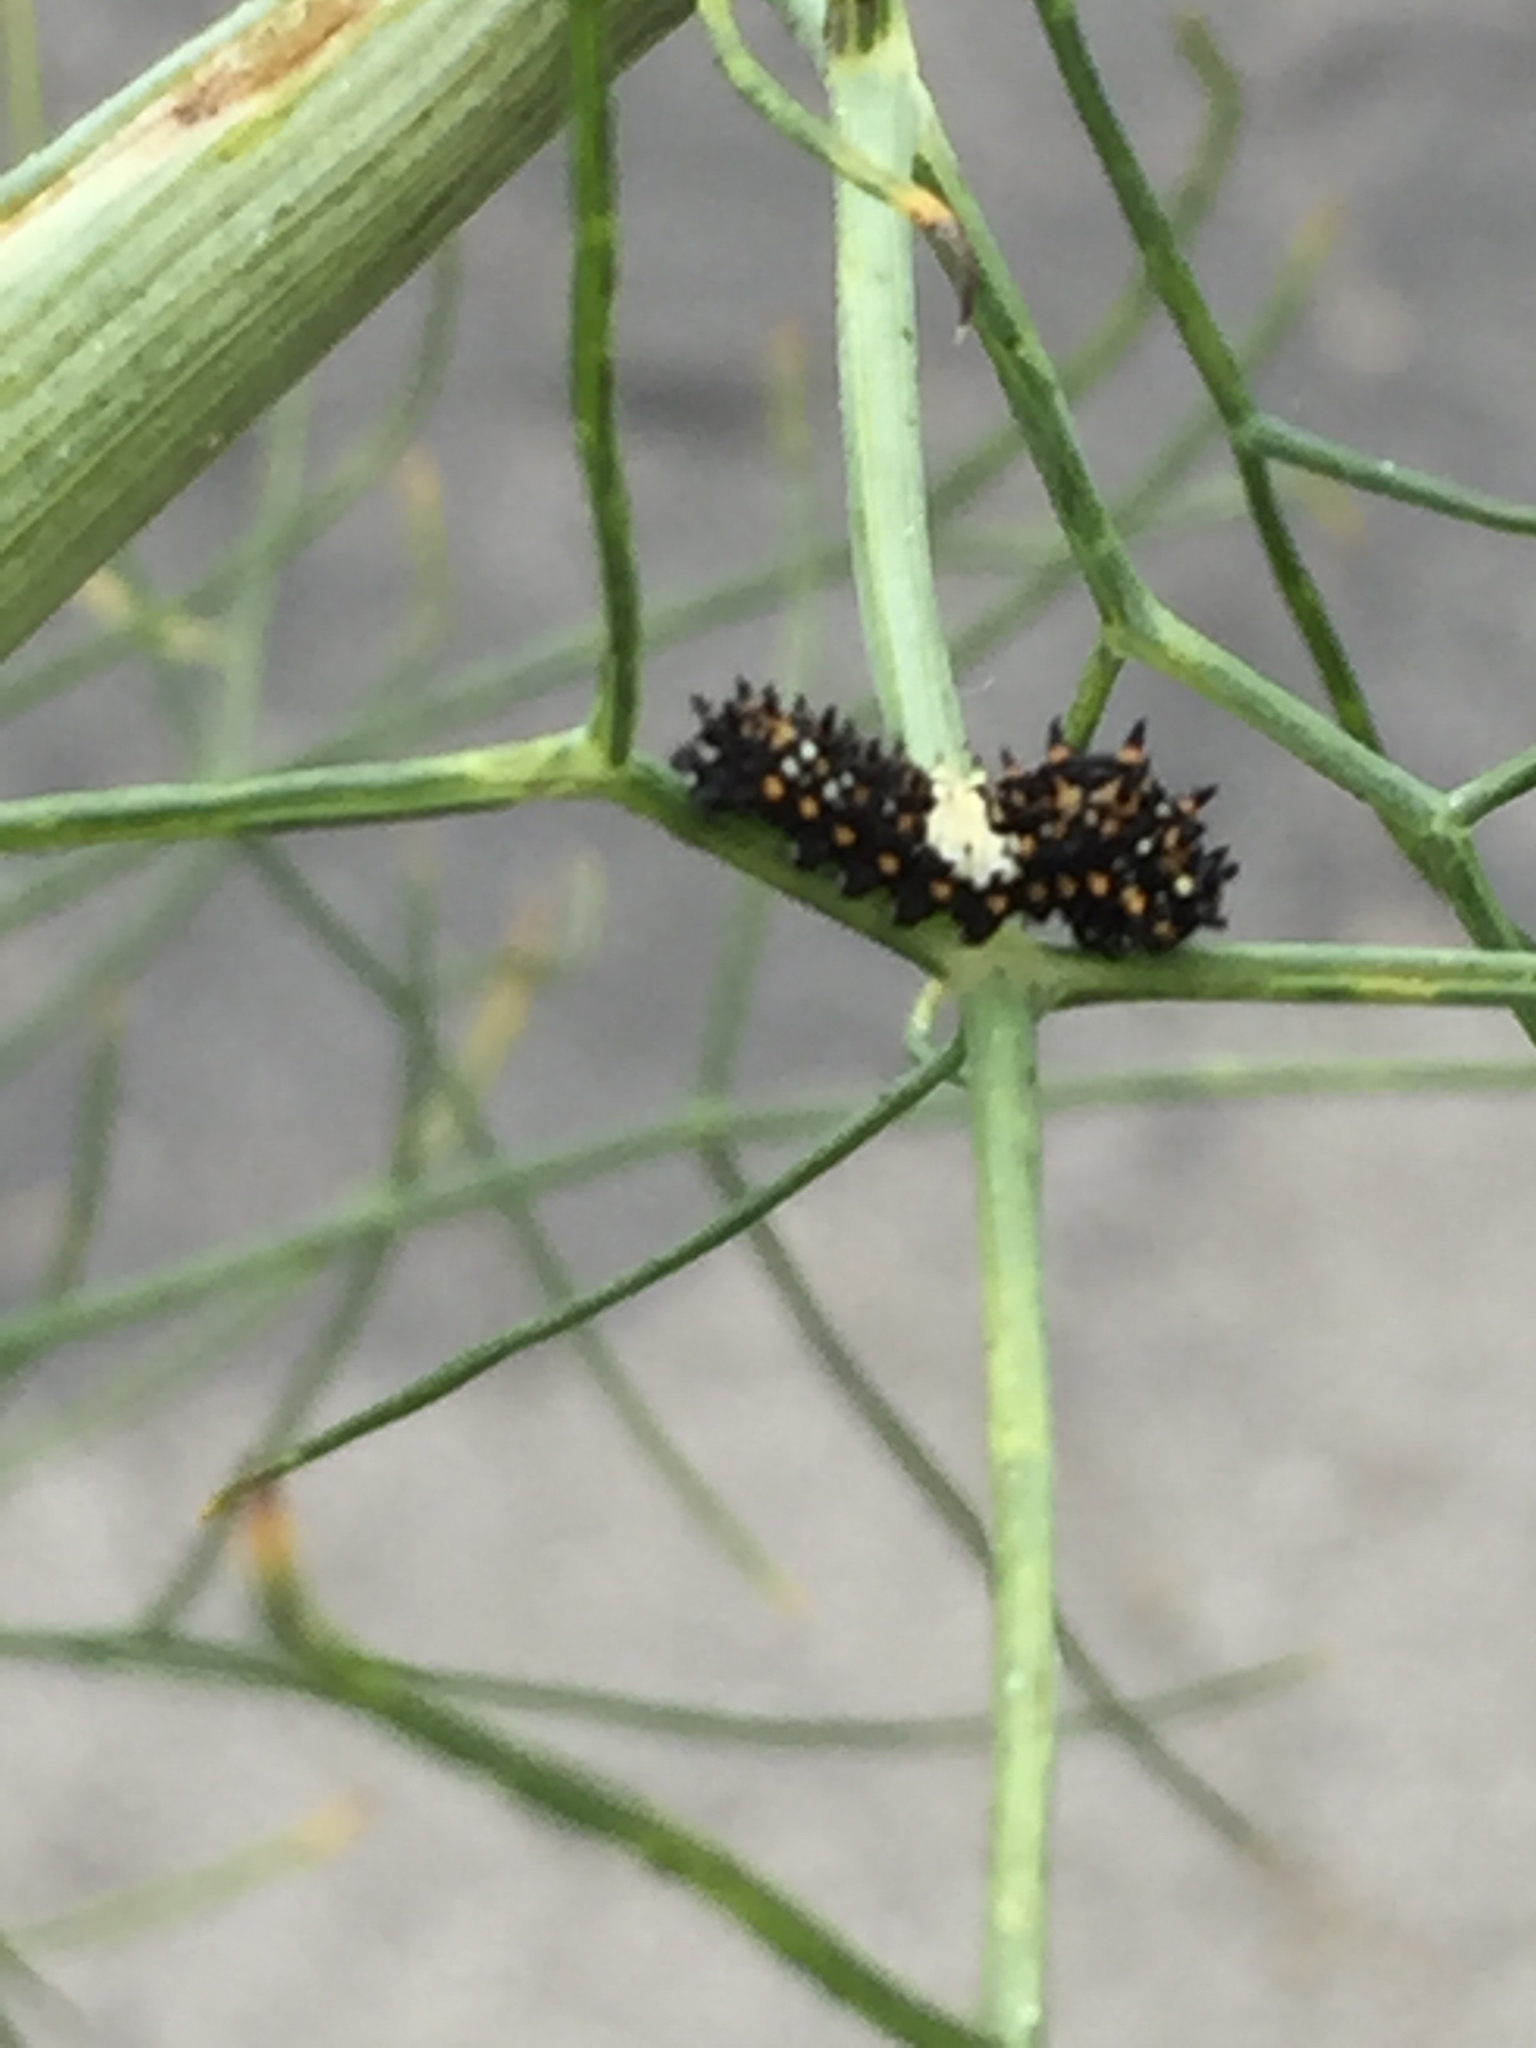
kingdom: Animalia
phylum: Arthropoda
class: Insecta
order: Lepidoptera
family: Papilionidae
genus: Papilio
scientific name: Papilio zelicaon
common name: Anise swallowtail
